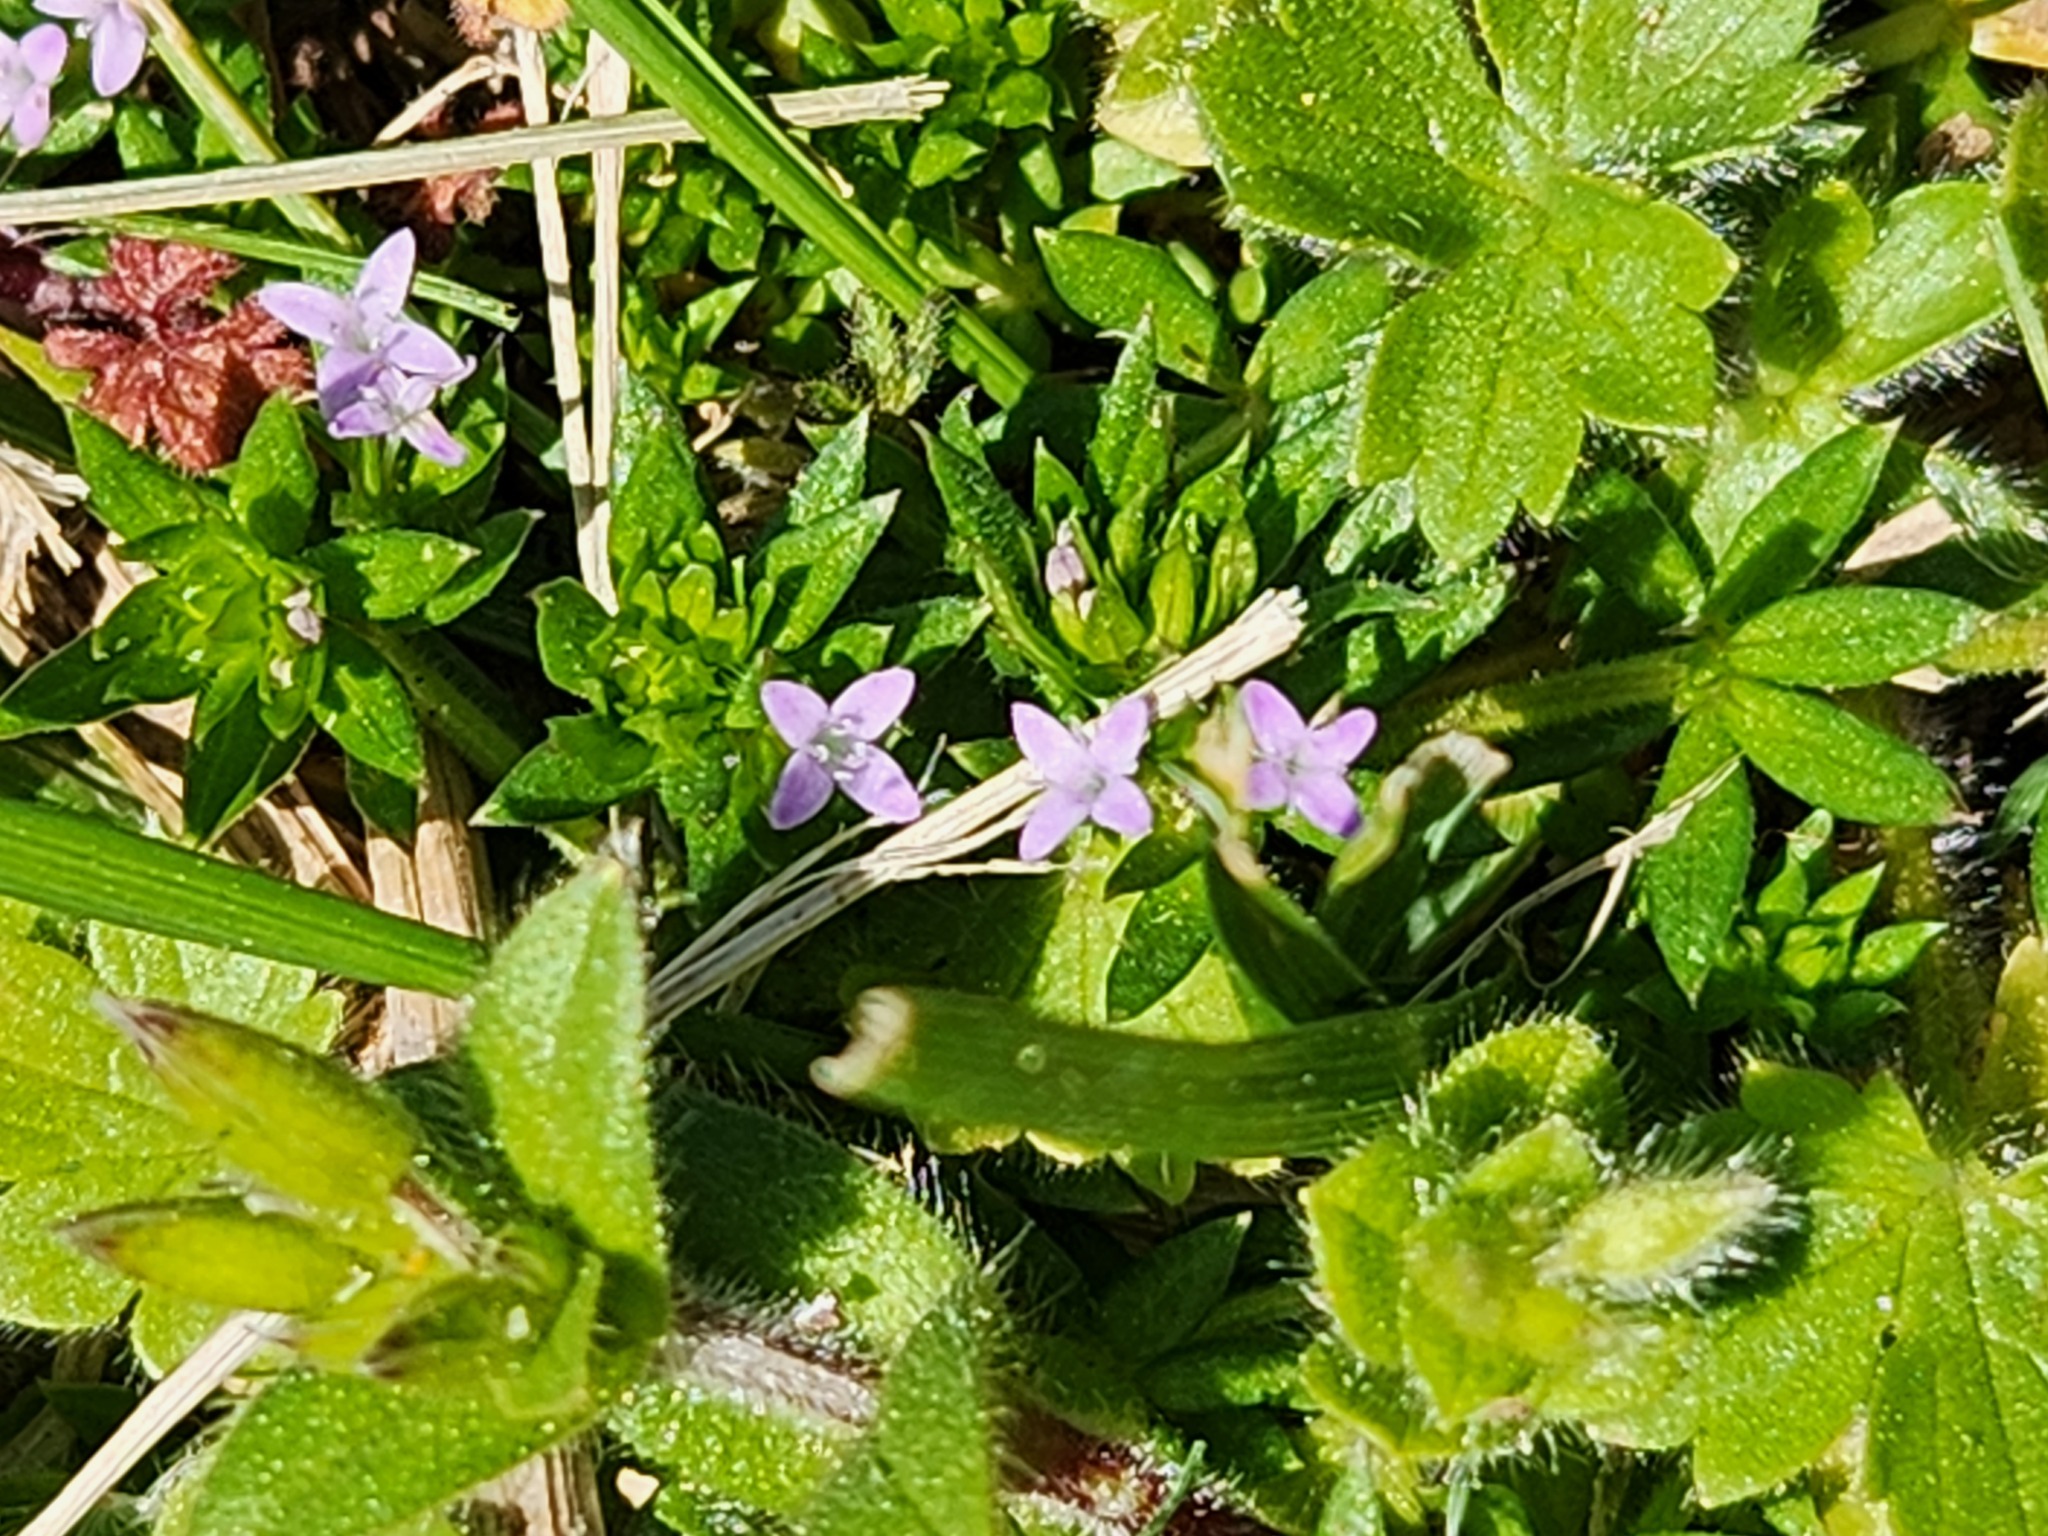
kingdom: Plantae
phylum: Tracheophyta
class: Magnoliopsida
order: Gentianales
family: Rubiaceae
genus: Sherardia
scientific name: Sherardia arvensis
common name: Field madder
